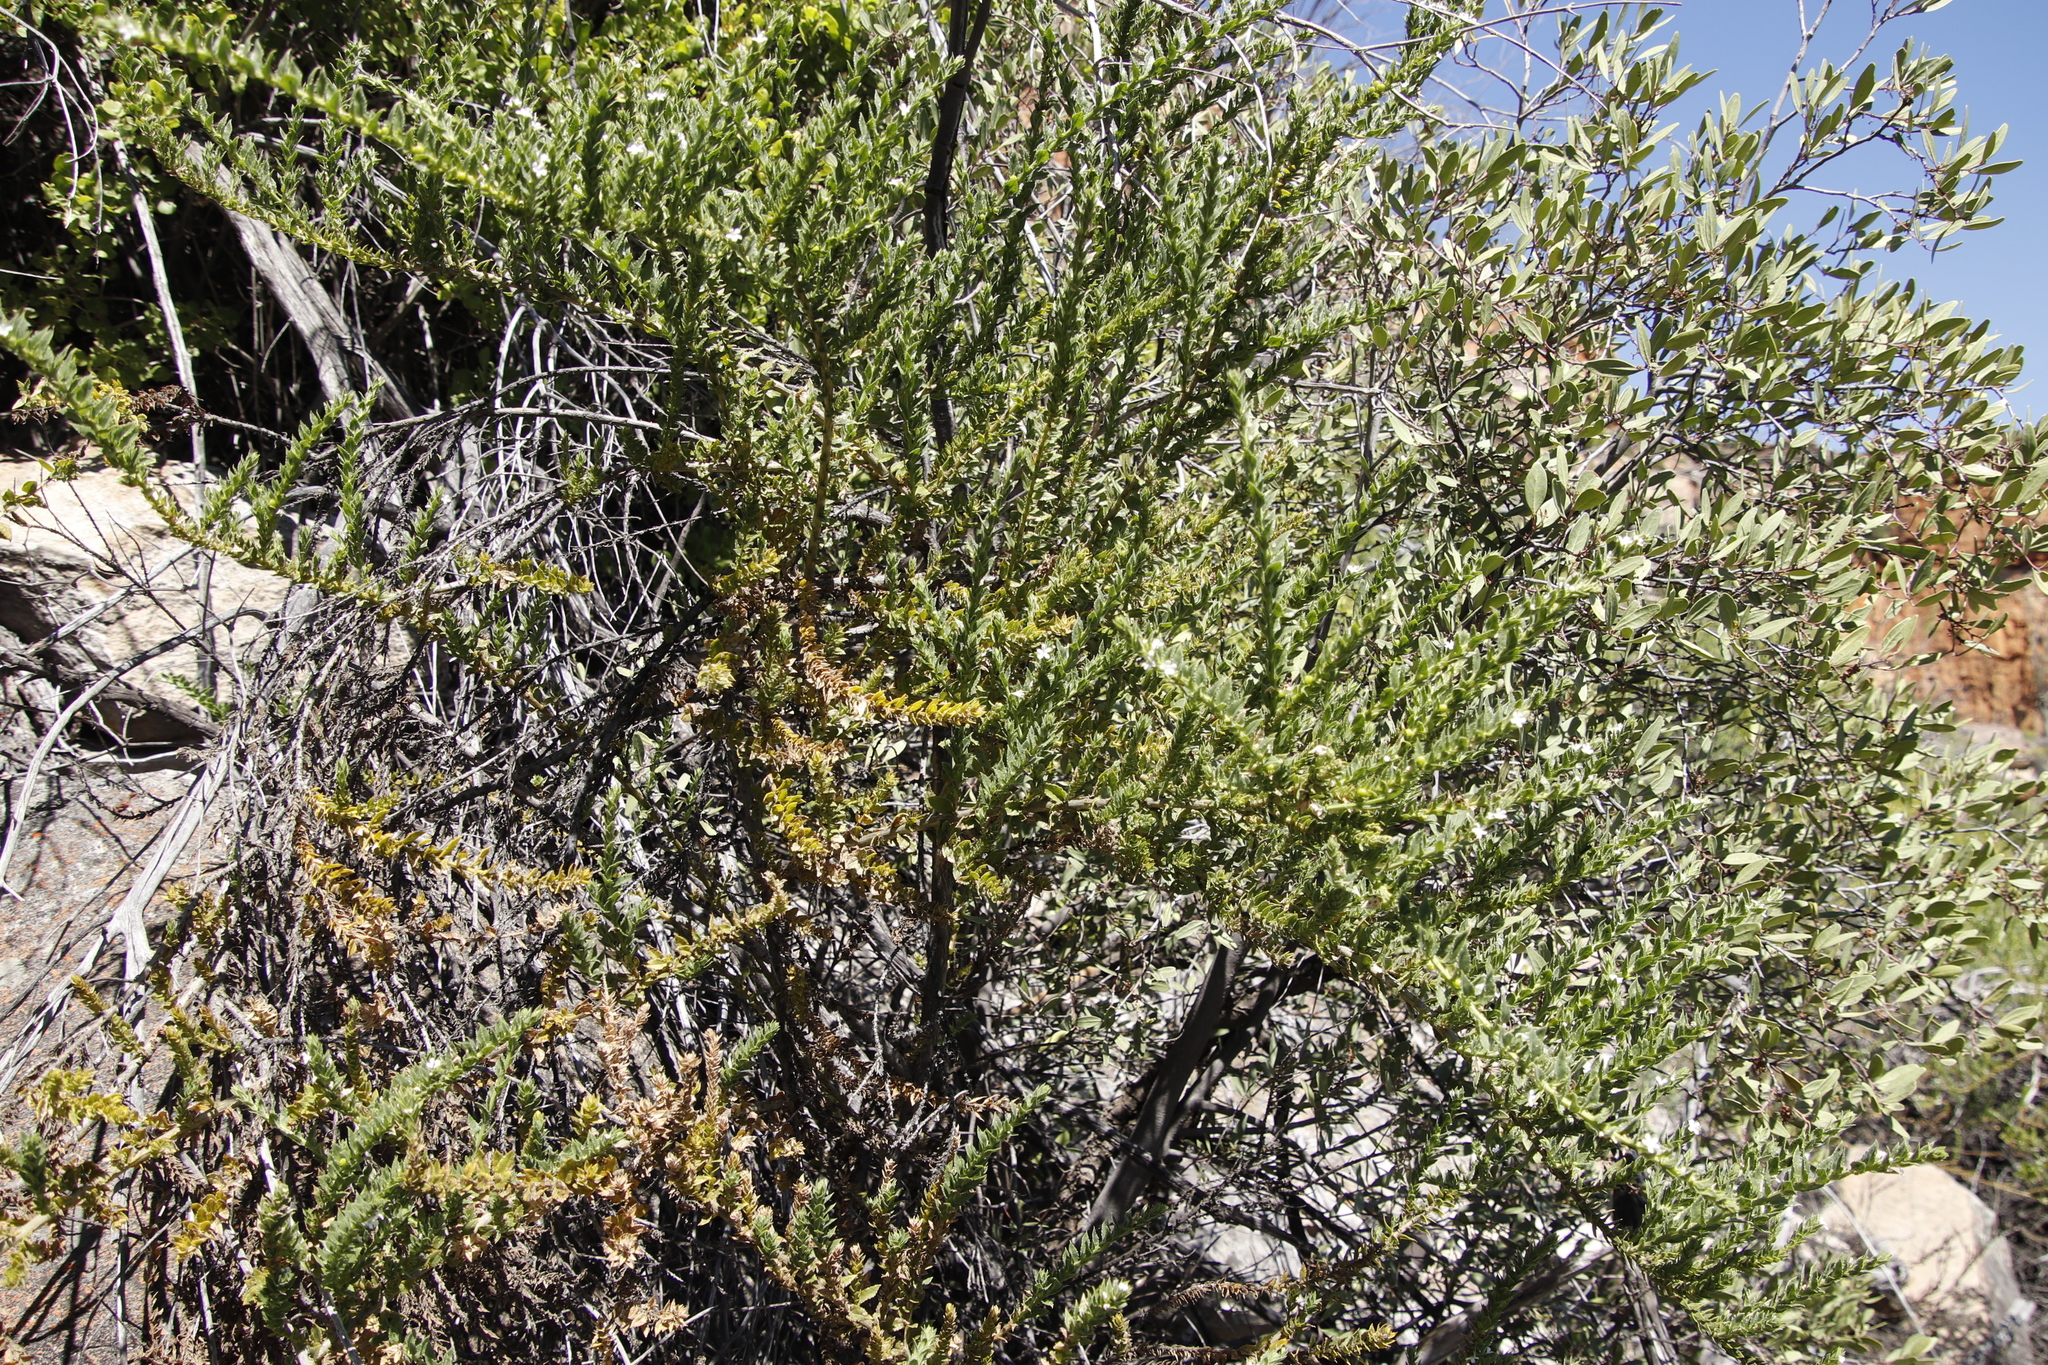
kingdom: Plantae
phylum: Tracheophyta
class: Magnoliopsida
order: Lamiales
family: Scrophulariaceae
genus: Oftia
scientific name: Oftia africana
